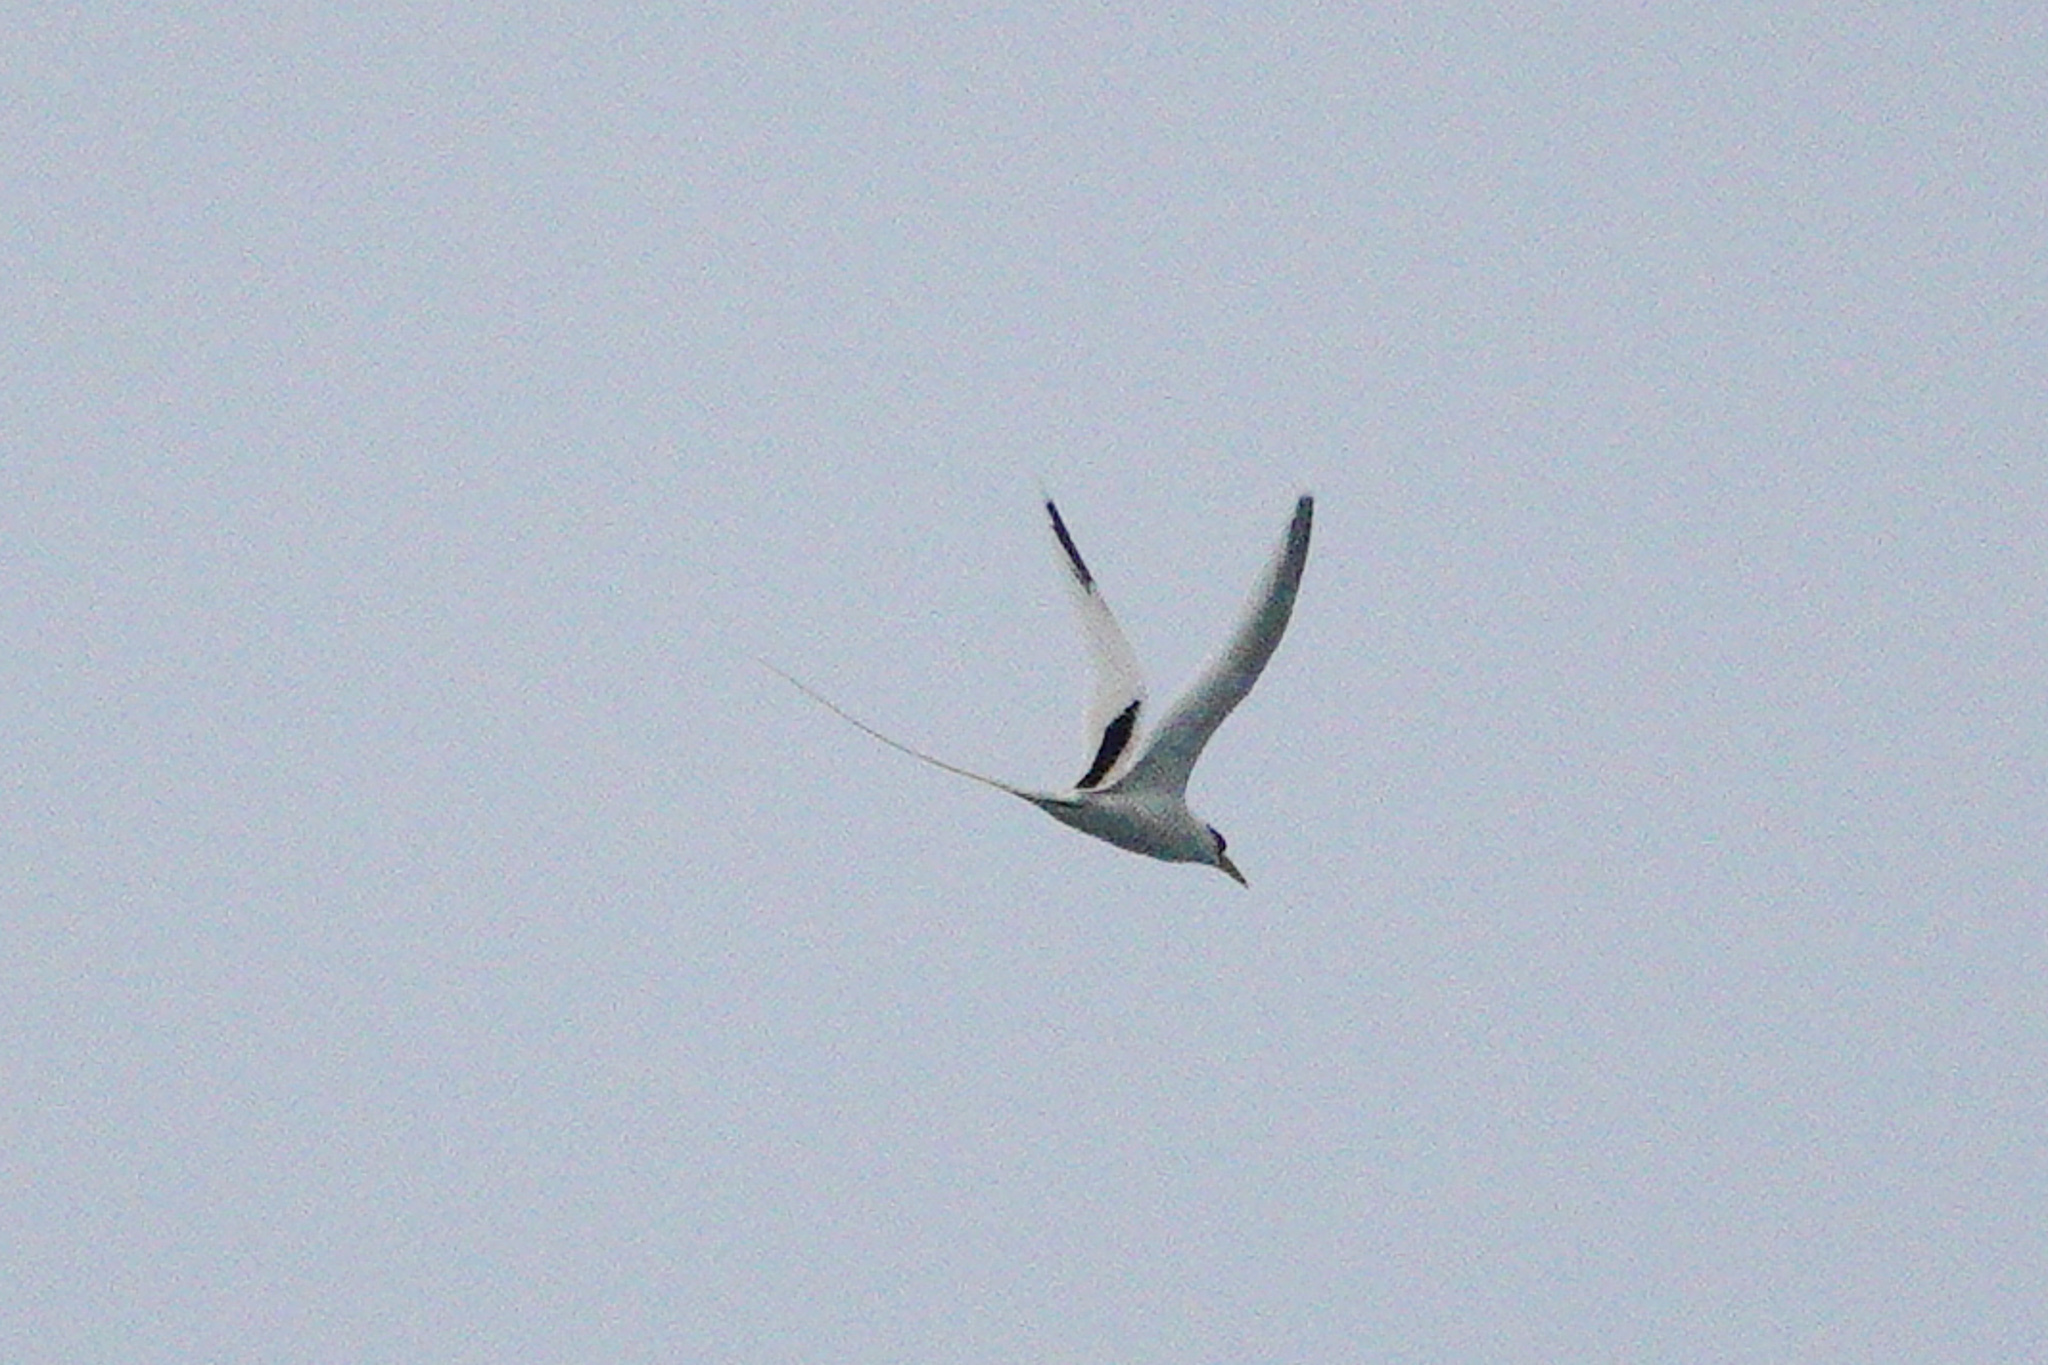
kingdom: Animalia
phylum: Chordata
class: Aves
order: Phaethontiformes
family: Phaethontidae
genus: Phaethon
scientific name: Phaethon lepturus
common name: White-tailed tropicbird
